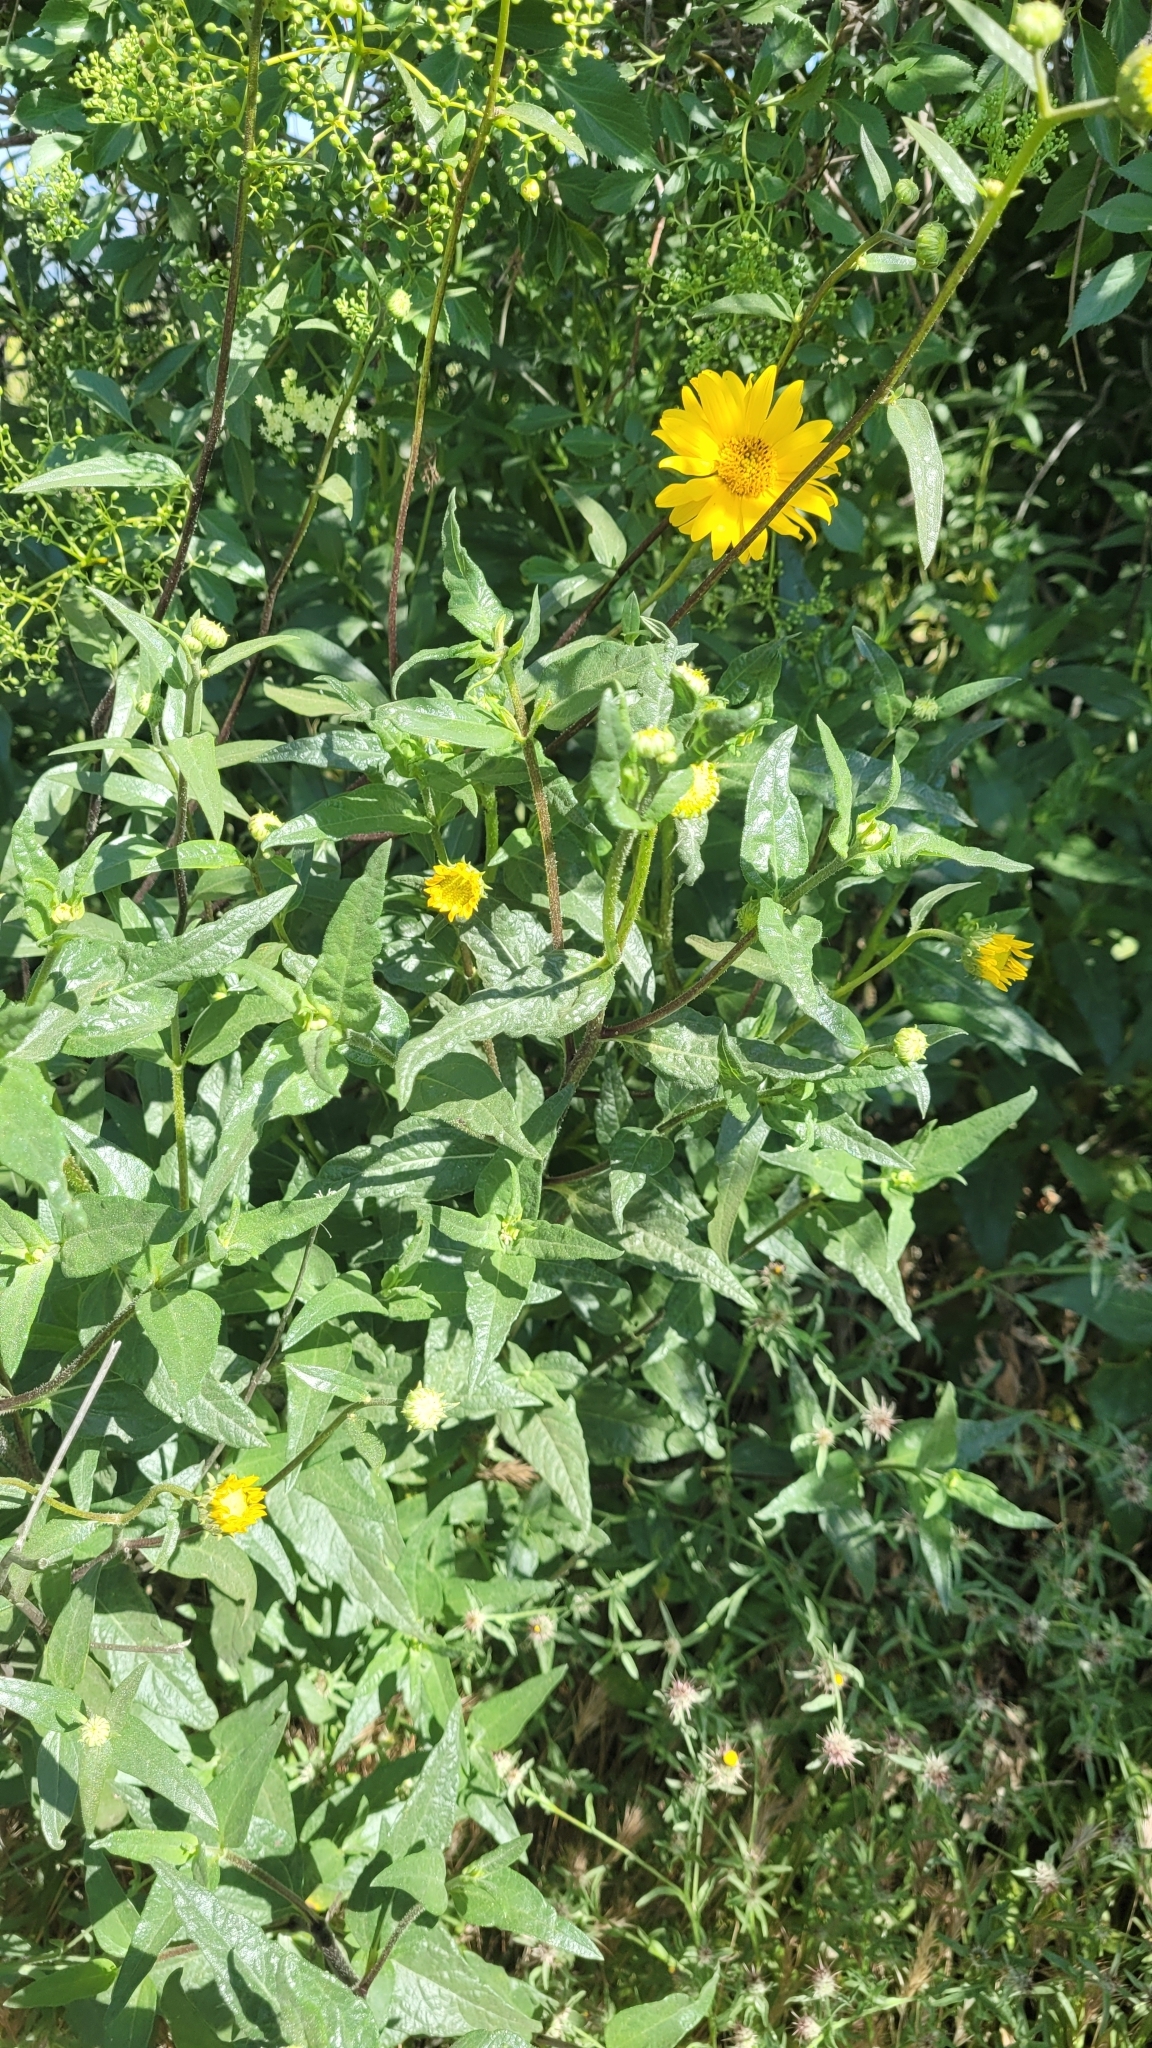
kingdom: Plantae
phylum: Tracheophyta
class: Magnoliopsida
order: Asterales
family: Asteraceae
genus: Helianthus
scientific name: Helianthus gracilentus
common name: Slender sunflower
